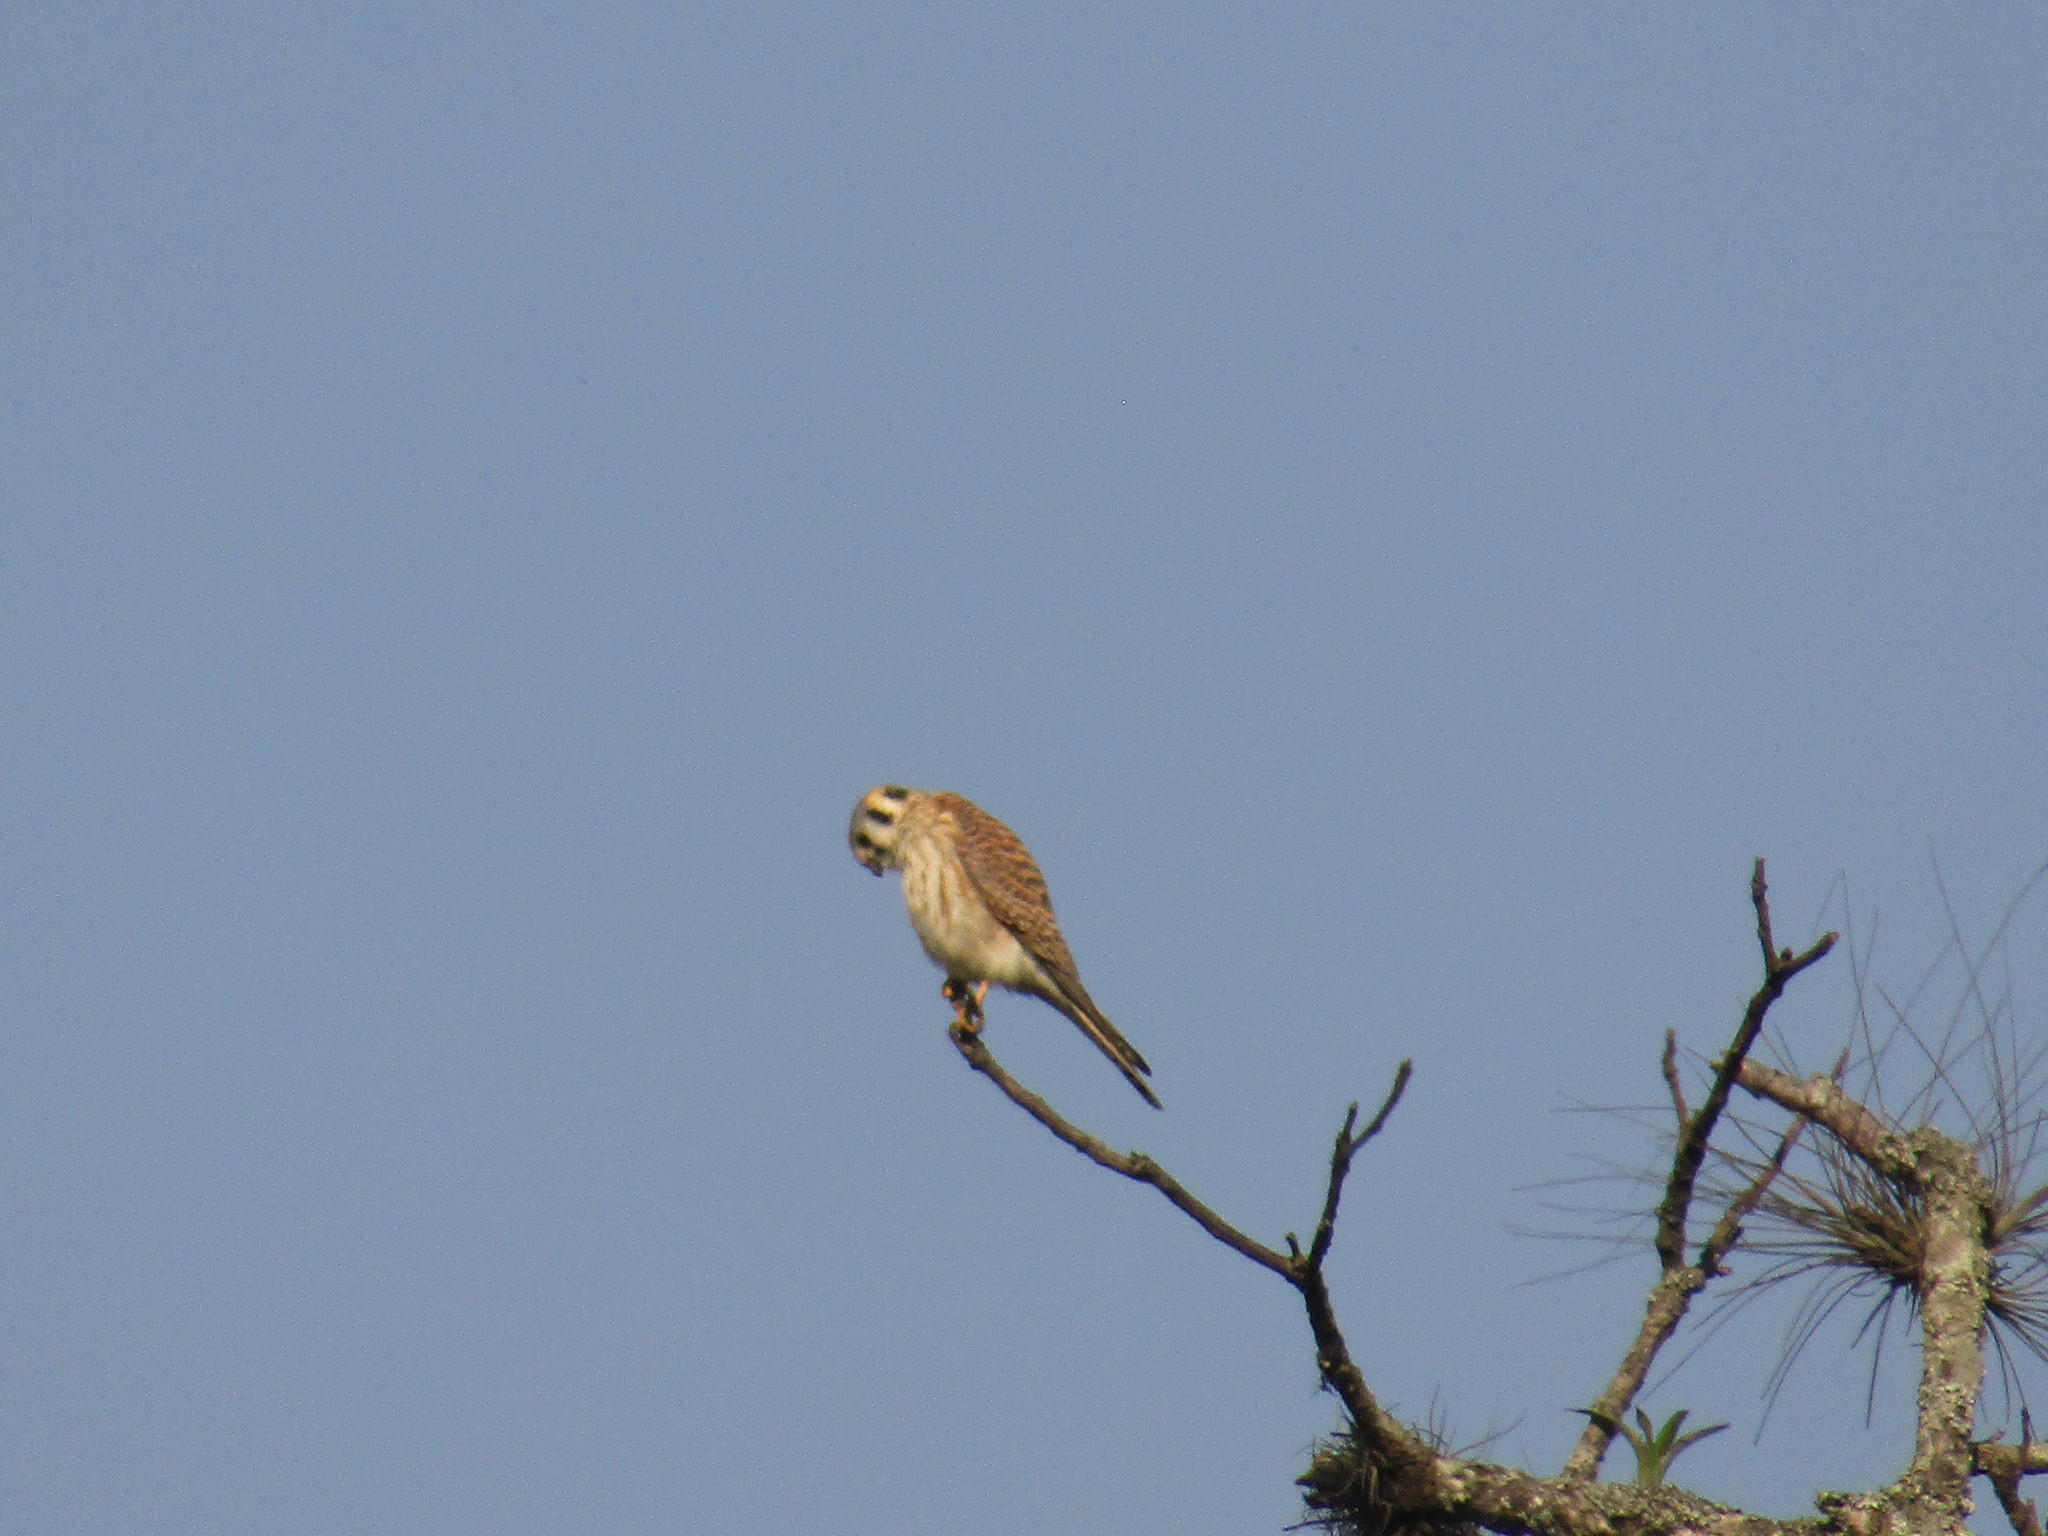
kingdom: Animalia
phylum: Chordata
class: Aves
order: Falconiformes
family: Falconidae
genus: Falco
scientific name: Falco sparverius
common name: American kestrel
